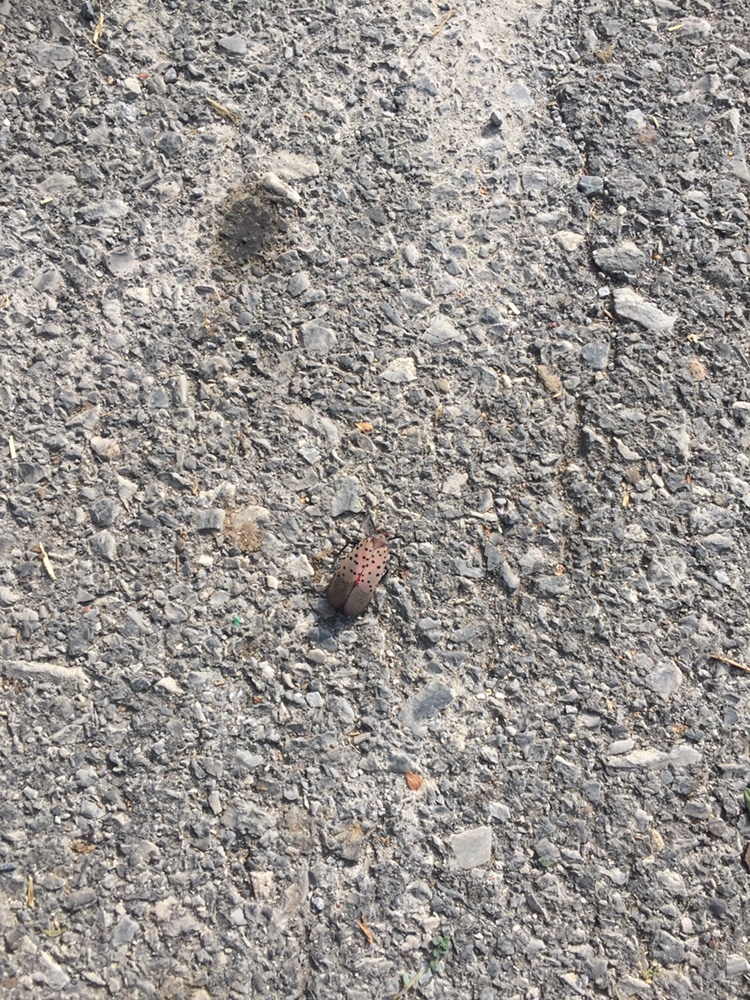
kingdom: Animalia
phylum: Arthropoda
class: Insecta
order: Hemiptera
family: Fulgoridae
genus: Lycorma
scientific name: Lycorma delicatula
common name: Spotted lanternfly
